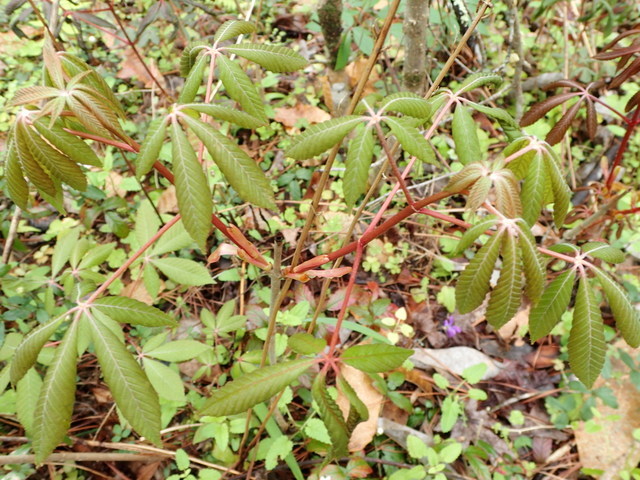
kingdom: Plantae
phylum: Tracheophyta
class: Magnoliopsida
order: Sapindales
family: Sapindaceae
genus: Aesculus
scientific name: Aesculus pavia
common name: Red buckeye
